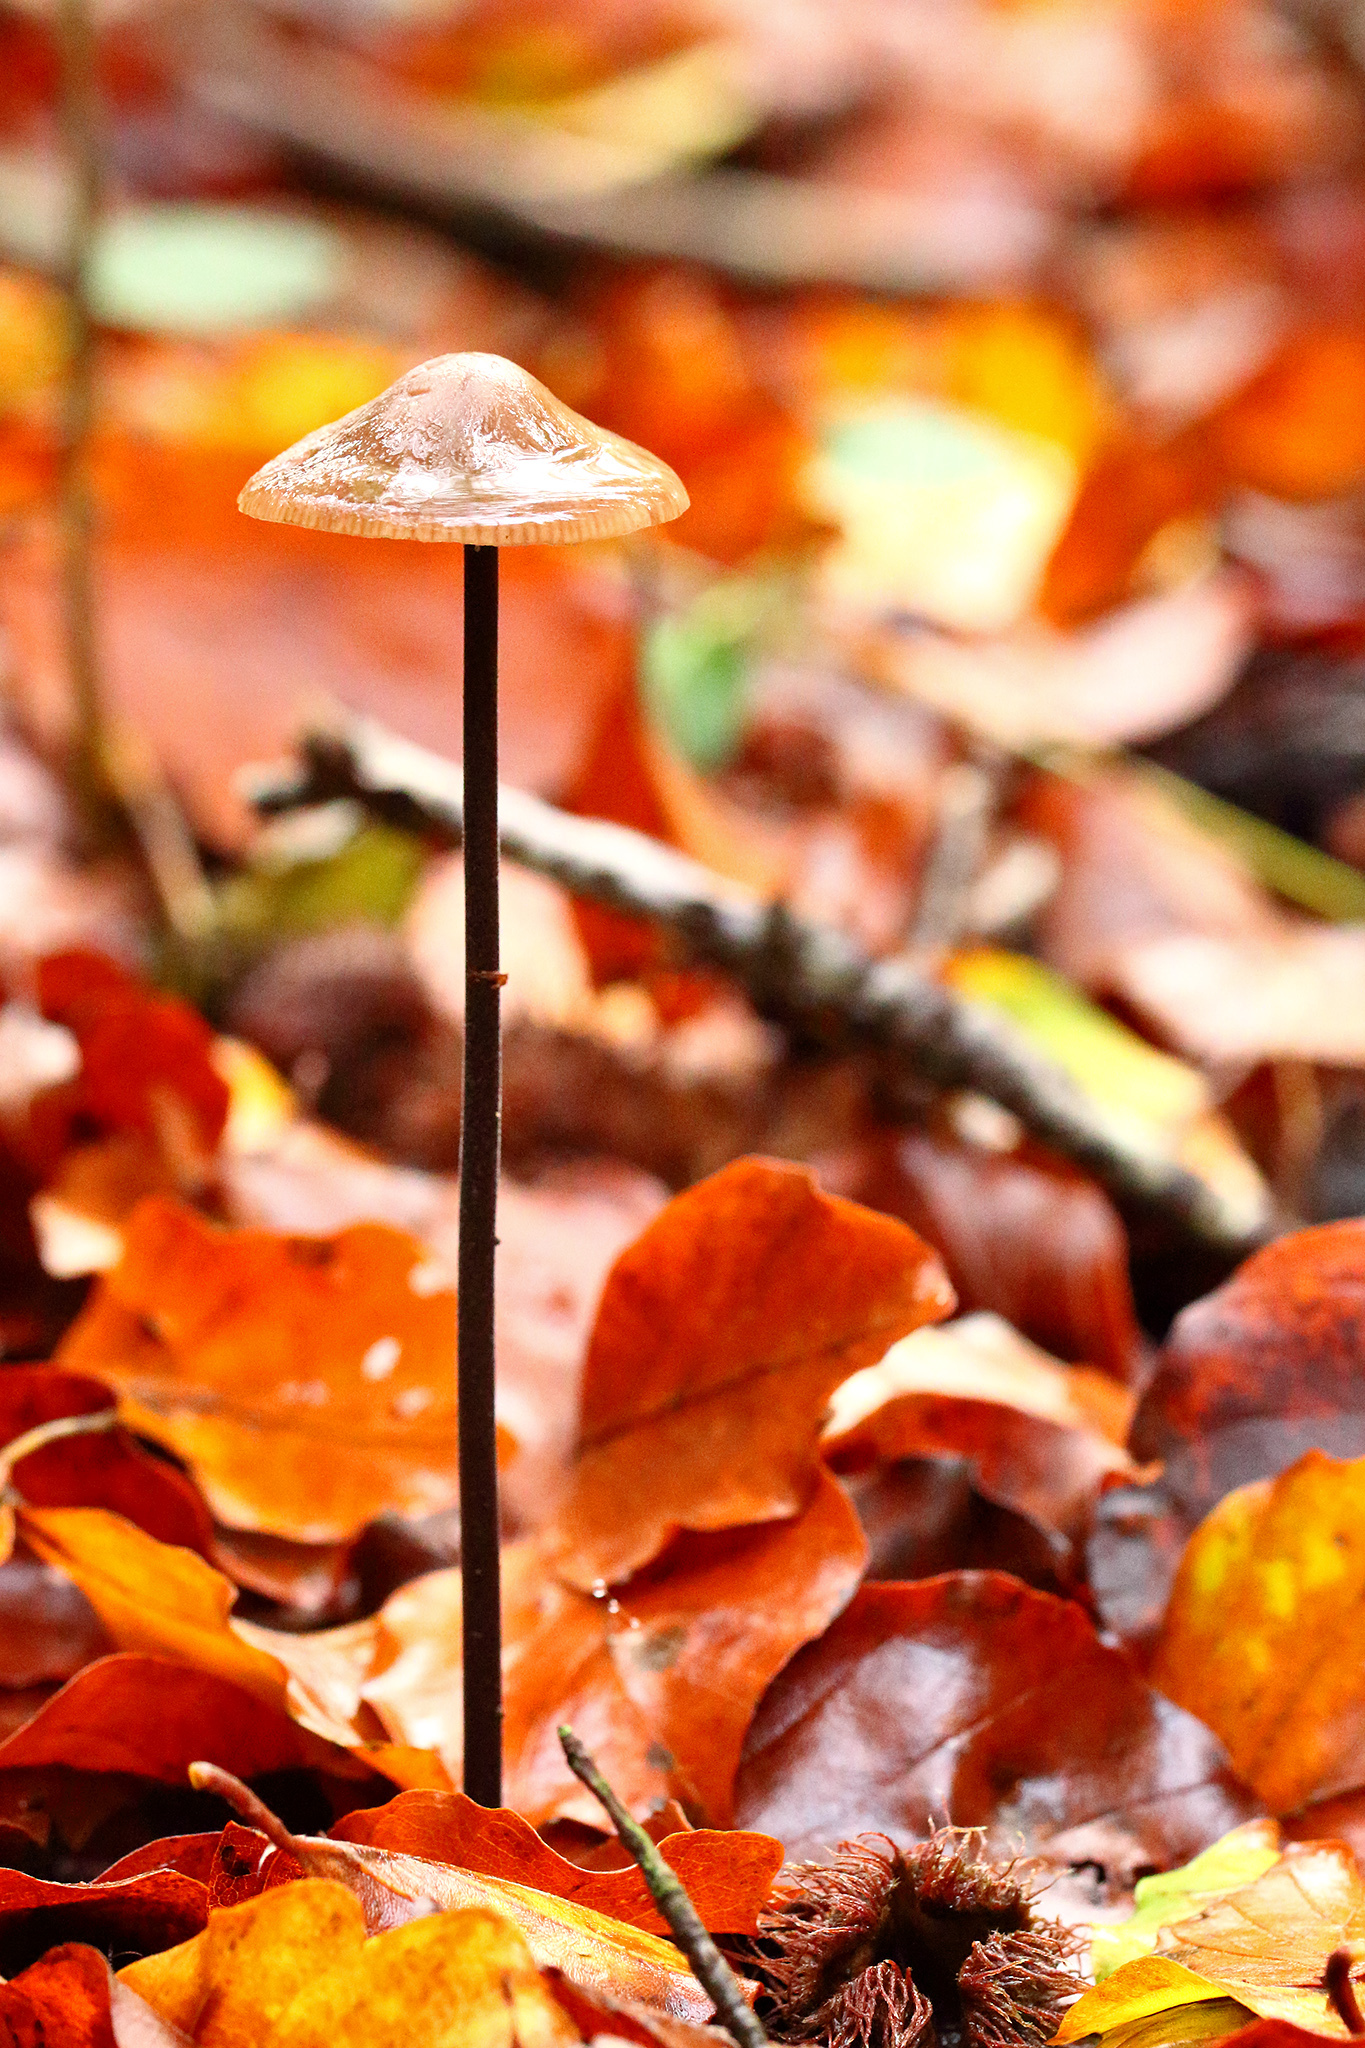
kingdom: Fungi
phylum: Basidiomycota
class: Agaricomycetes
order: Agaricales
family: Omphalotaceae
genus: Mycetinis
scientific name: Mycetinis alliaceus
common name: Garlic parachute
